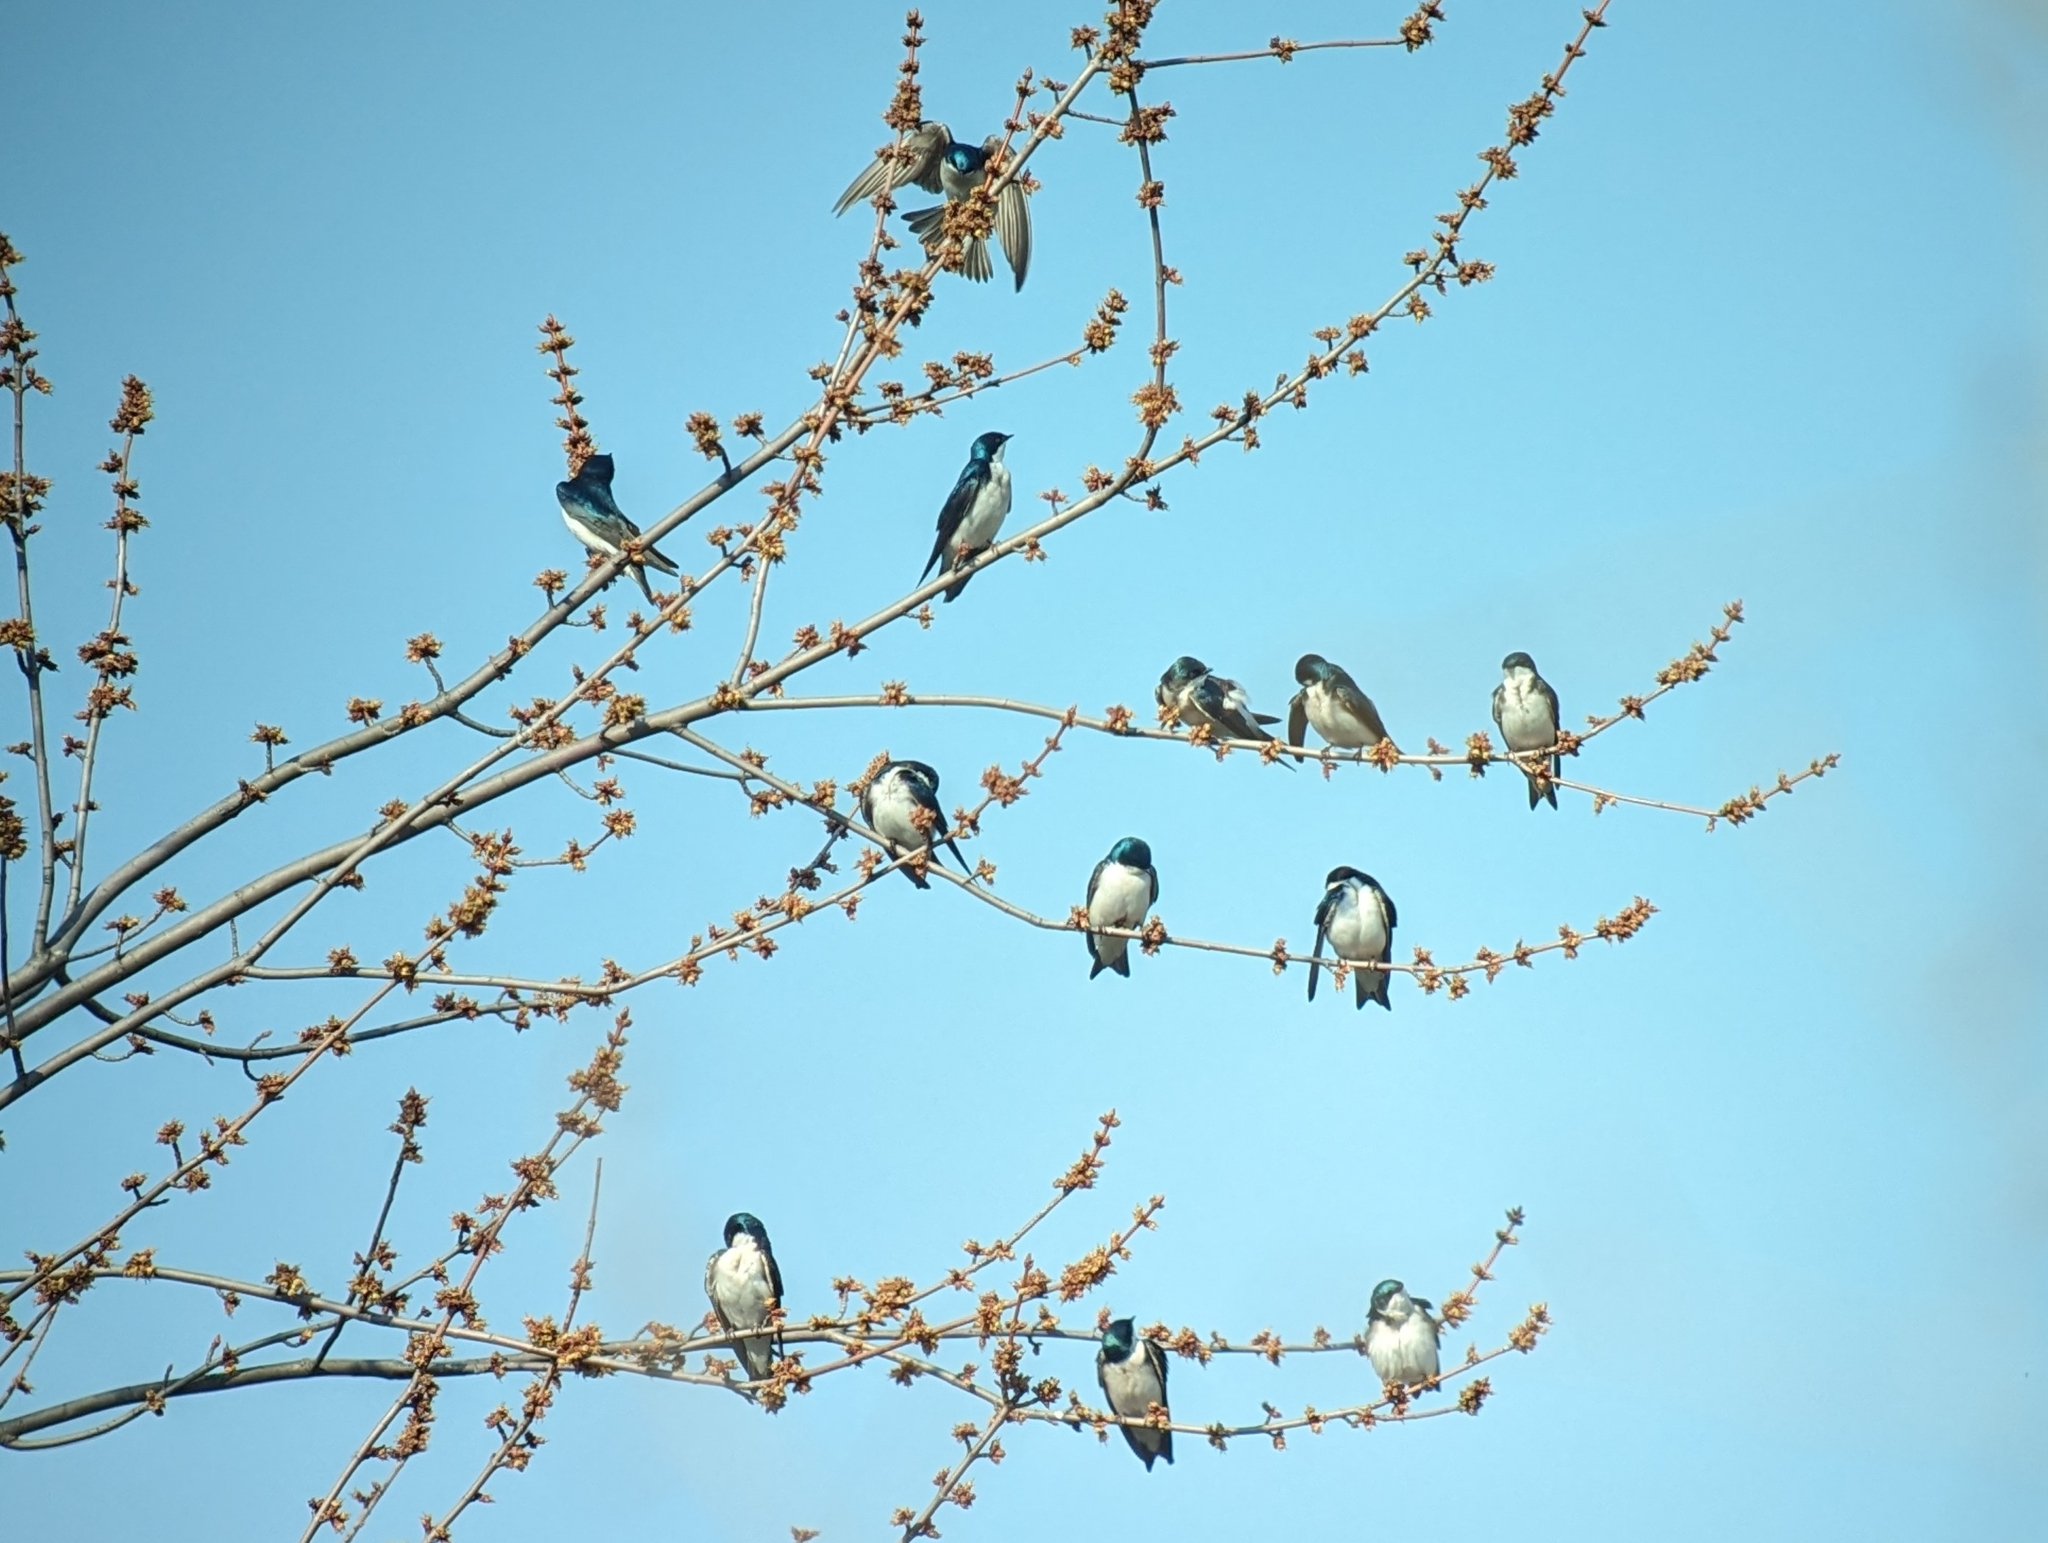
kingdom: Animalia
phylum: Chordata
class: Aves
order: Passeriformes
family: Hirundinidae
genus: Tachycineta
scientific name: Tachycineta bicolor
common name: Tree swallow
